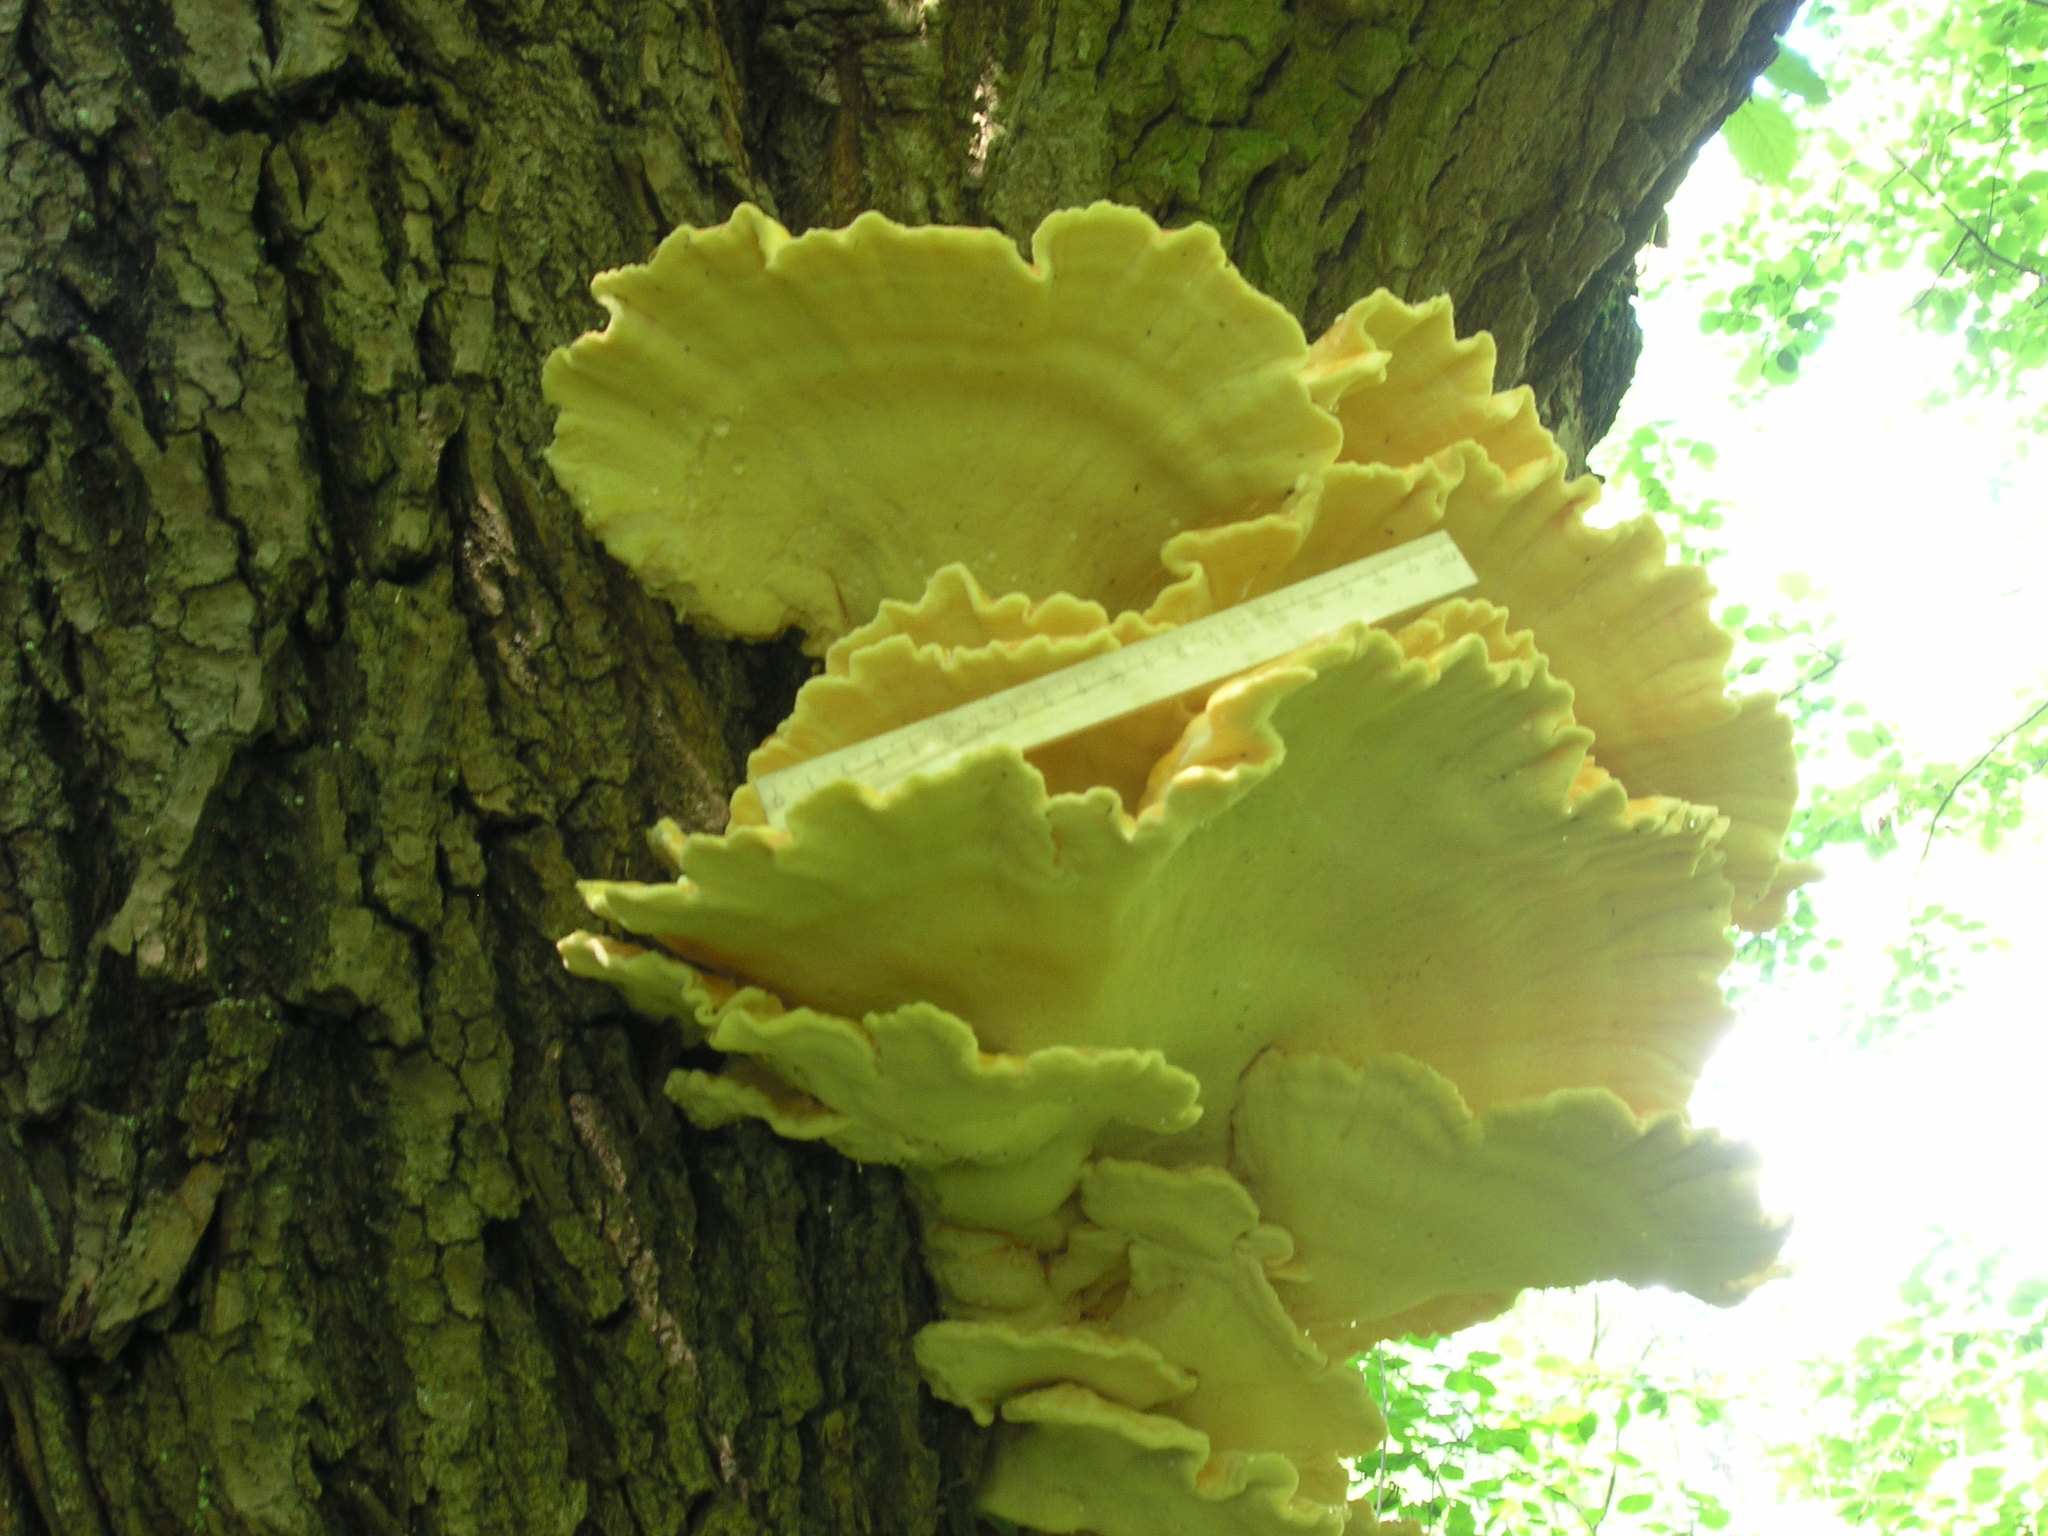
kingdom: Fungi
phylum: Basidiomycota
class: Agaricomycetes
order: Polyporales
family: Laetiporaceae
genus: Laetiporus
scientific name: Laetiporus sulphureus
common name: Chicken of the woods
